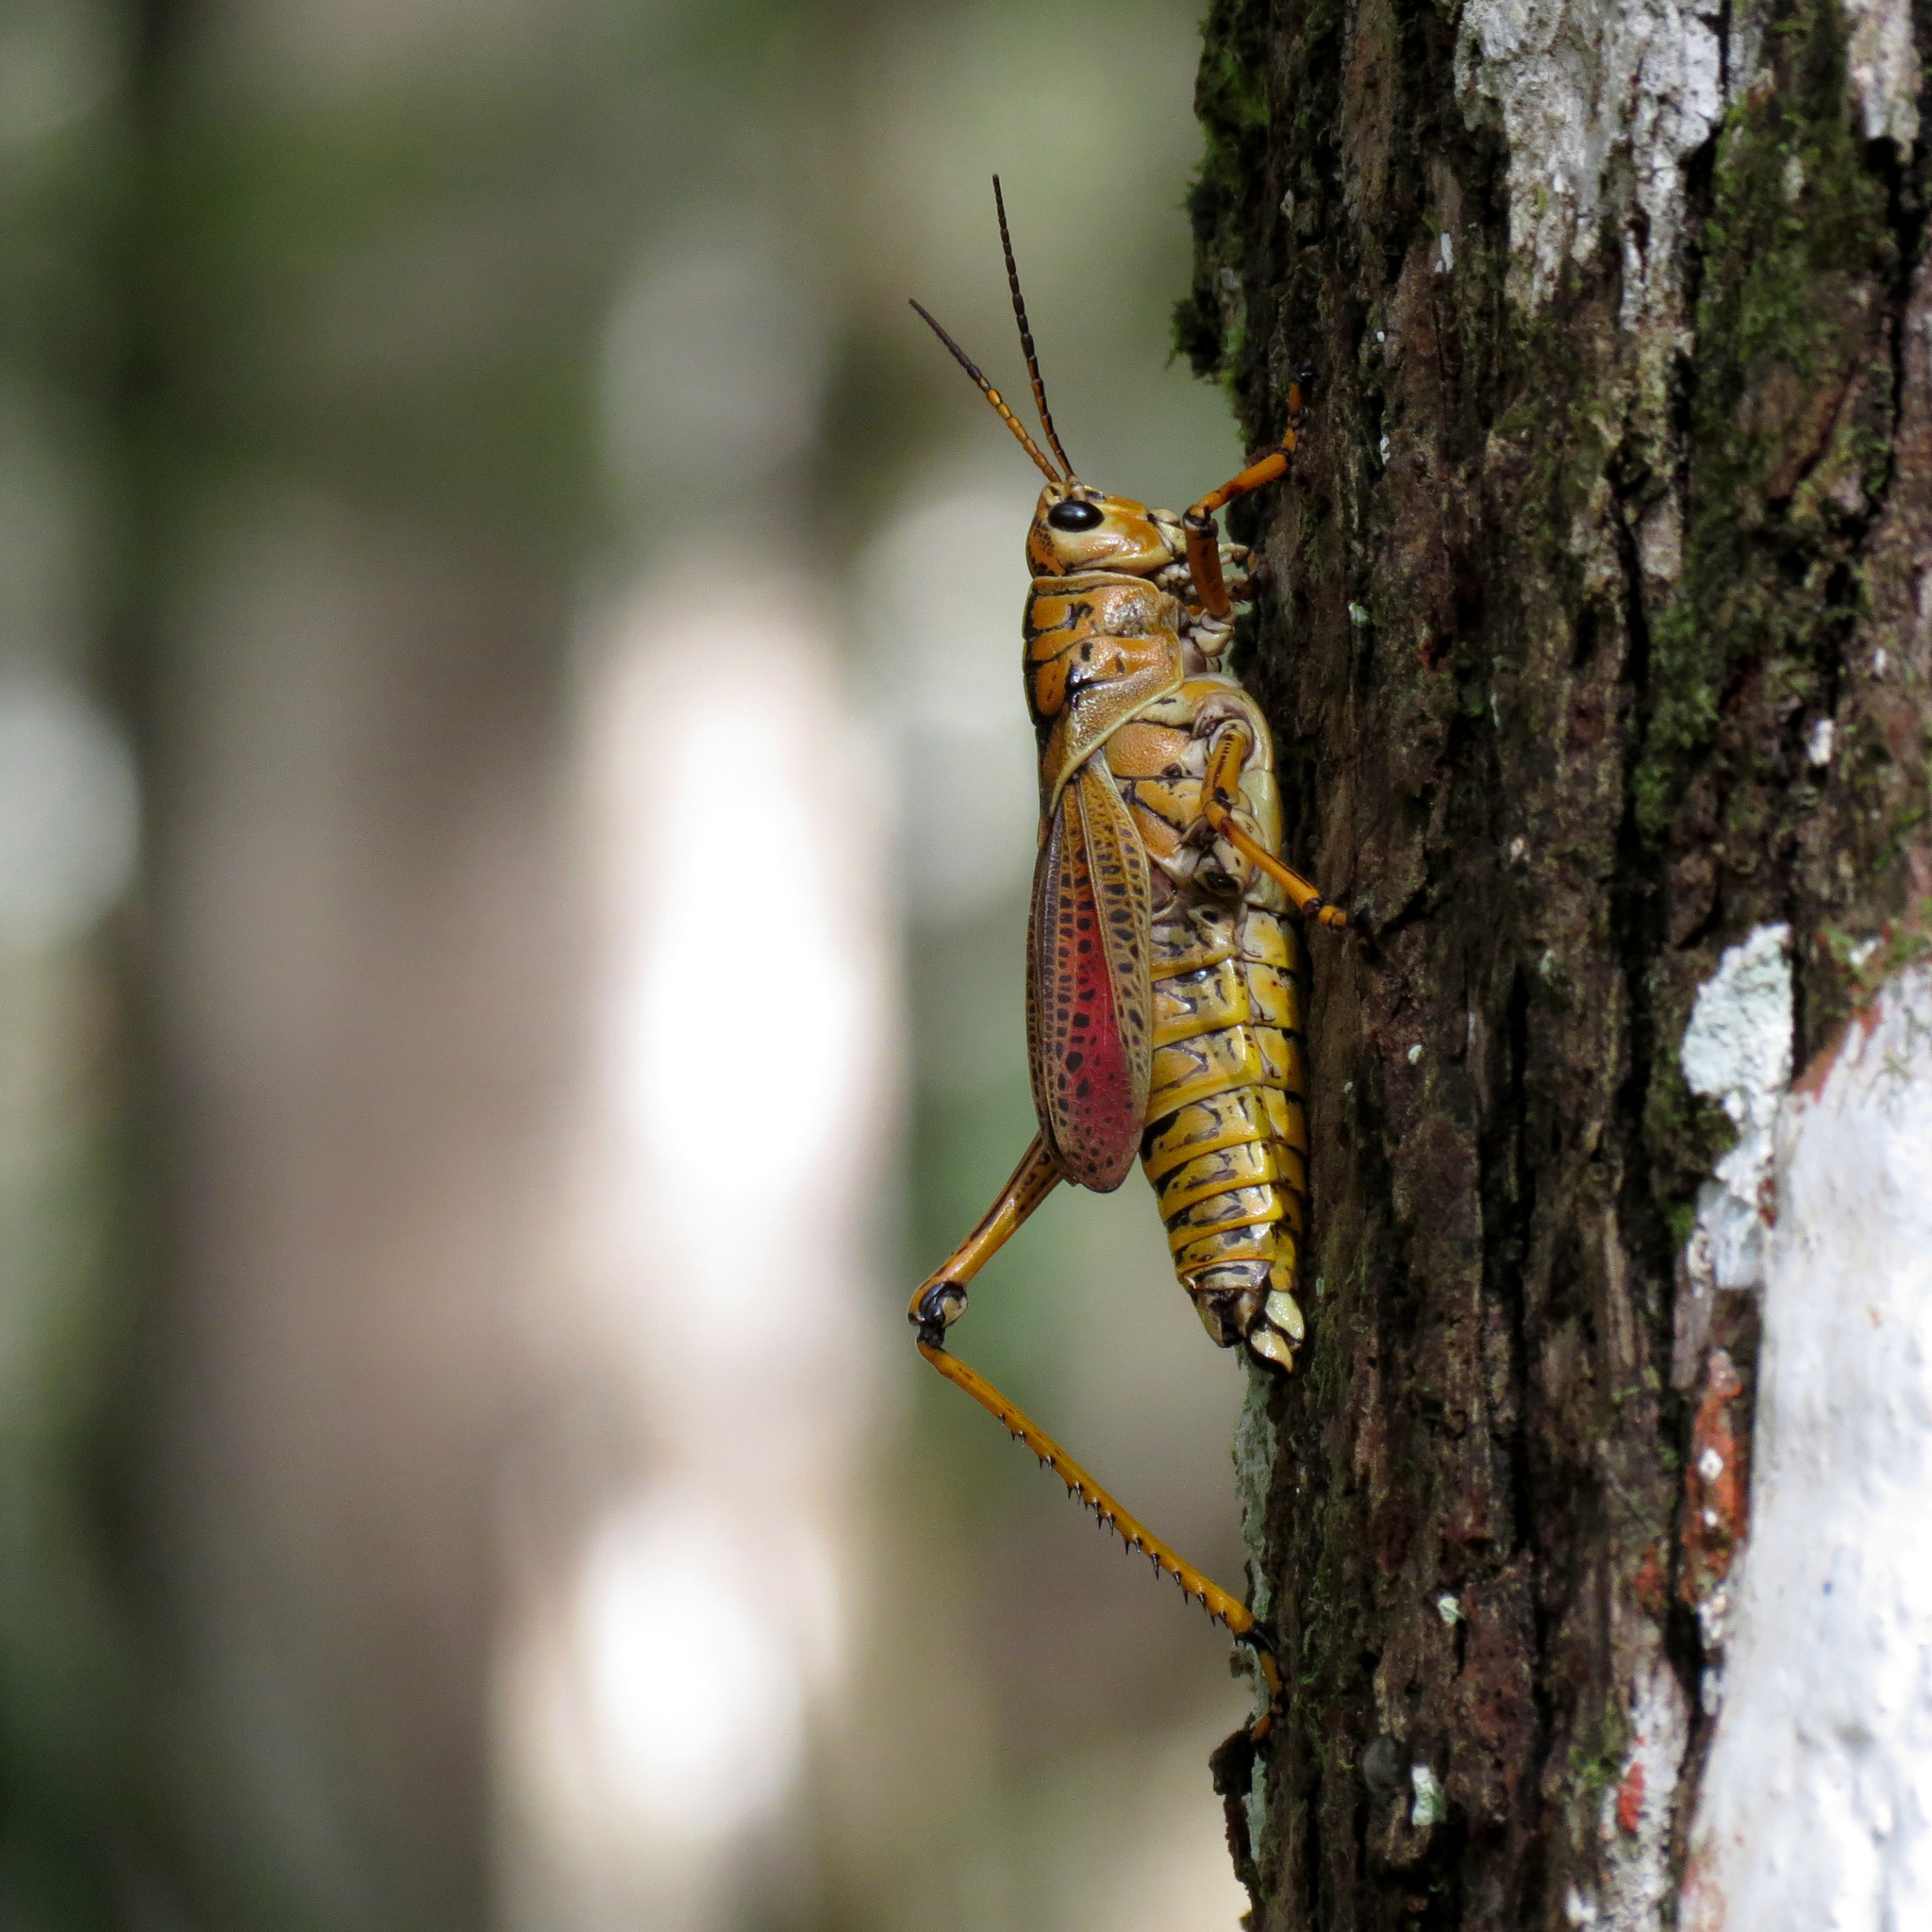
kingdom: Animalia
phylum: Arthropoda
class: Insecta
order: Orthoptera
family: Romaleidae
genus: Romalea
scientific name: Romalea microptera
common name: Eastern lubber grasshopper
